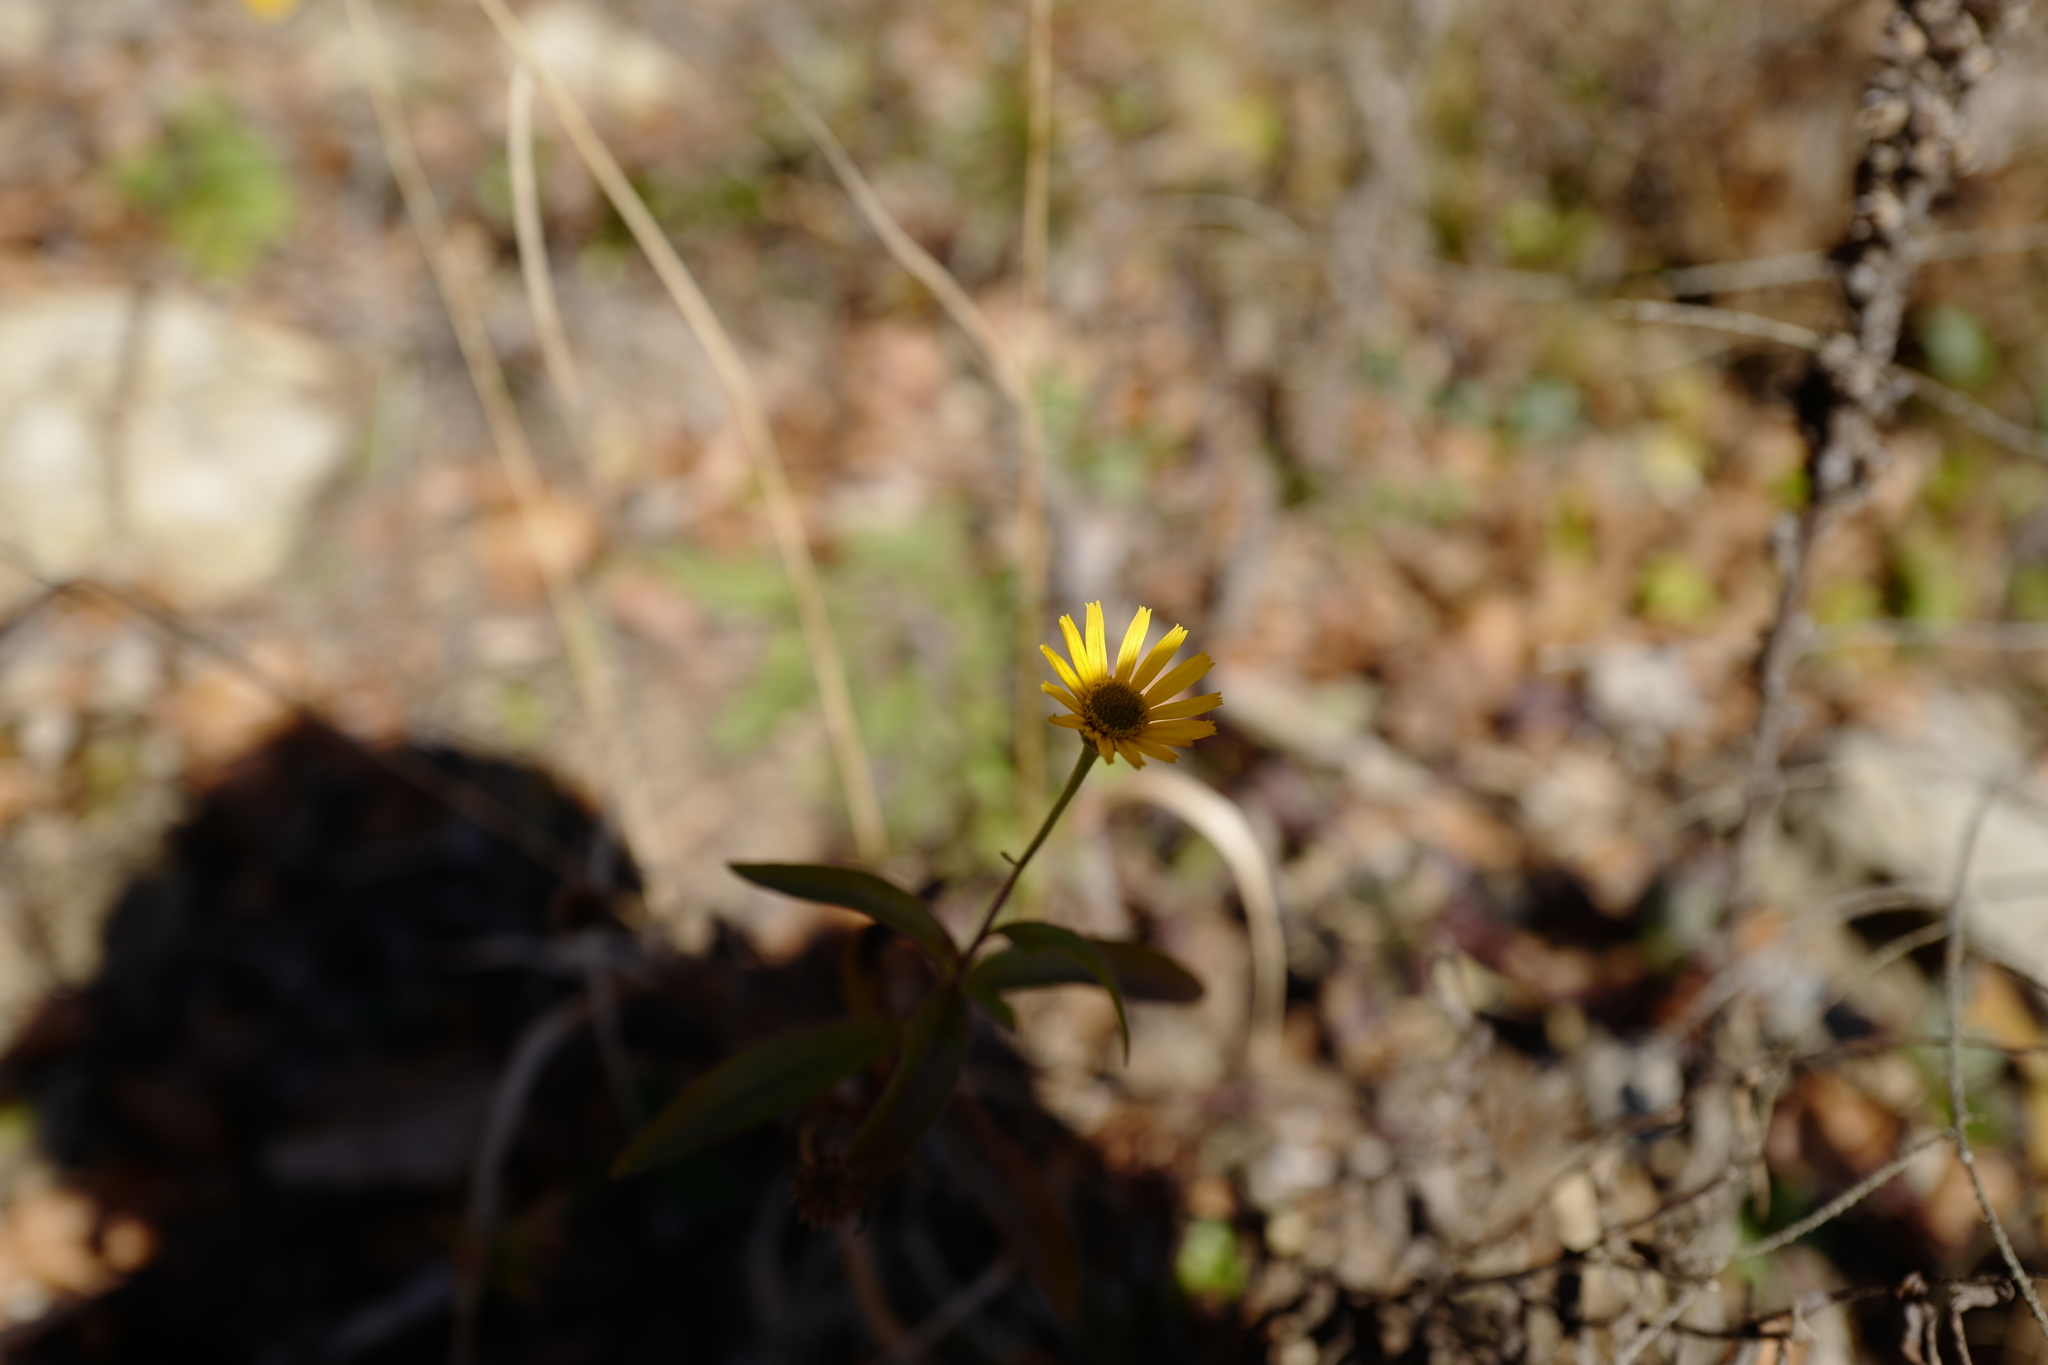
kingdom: Plantae
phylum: Tracheophyta
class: Magnoliopsida
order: Asterales
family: Asteraceae
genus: Buphthalmum
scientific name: Buphthalmum salicifolium
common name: Willow-leaved yellow-oxeye
